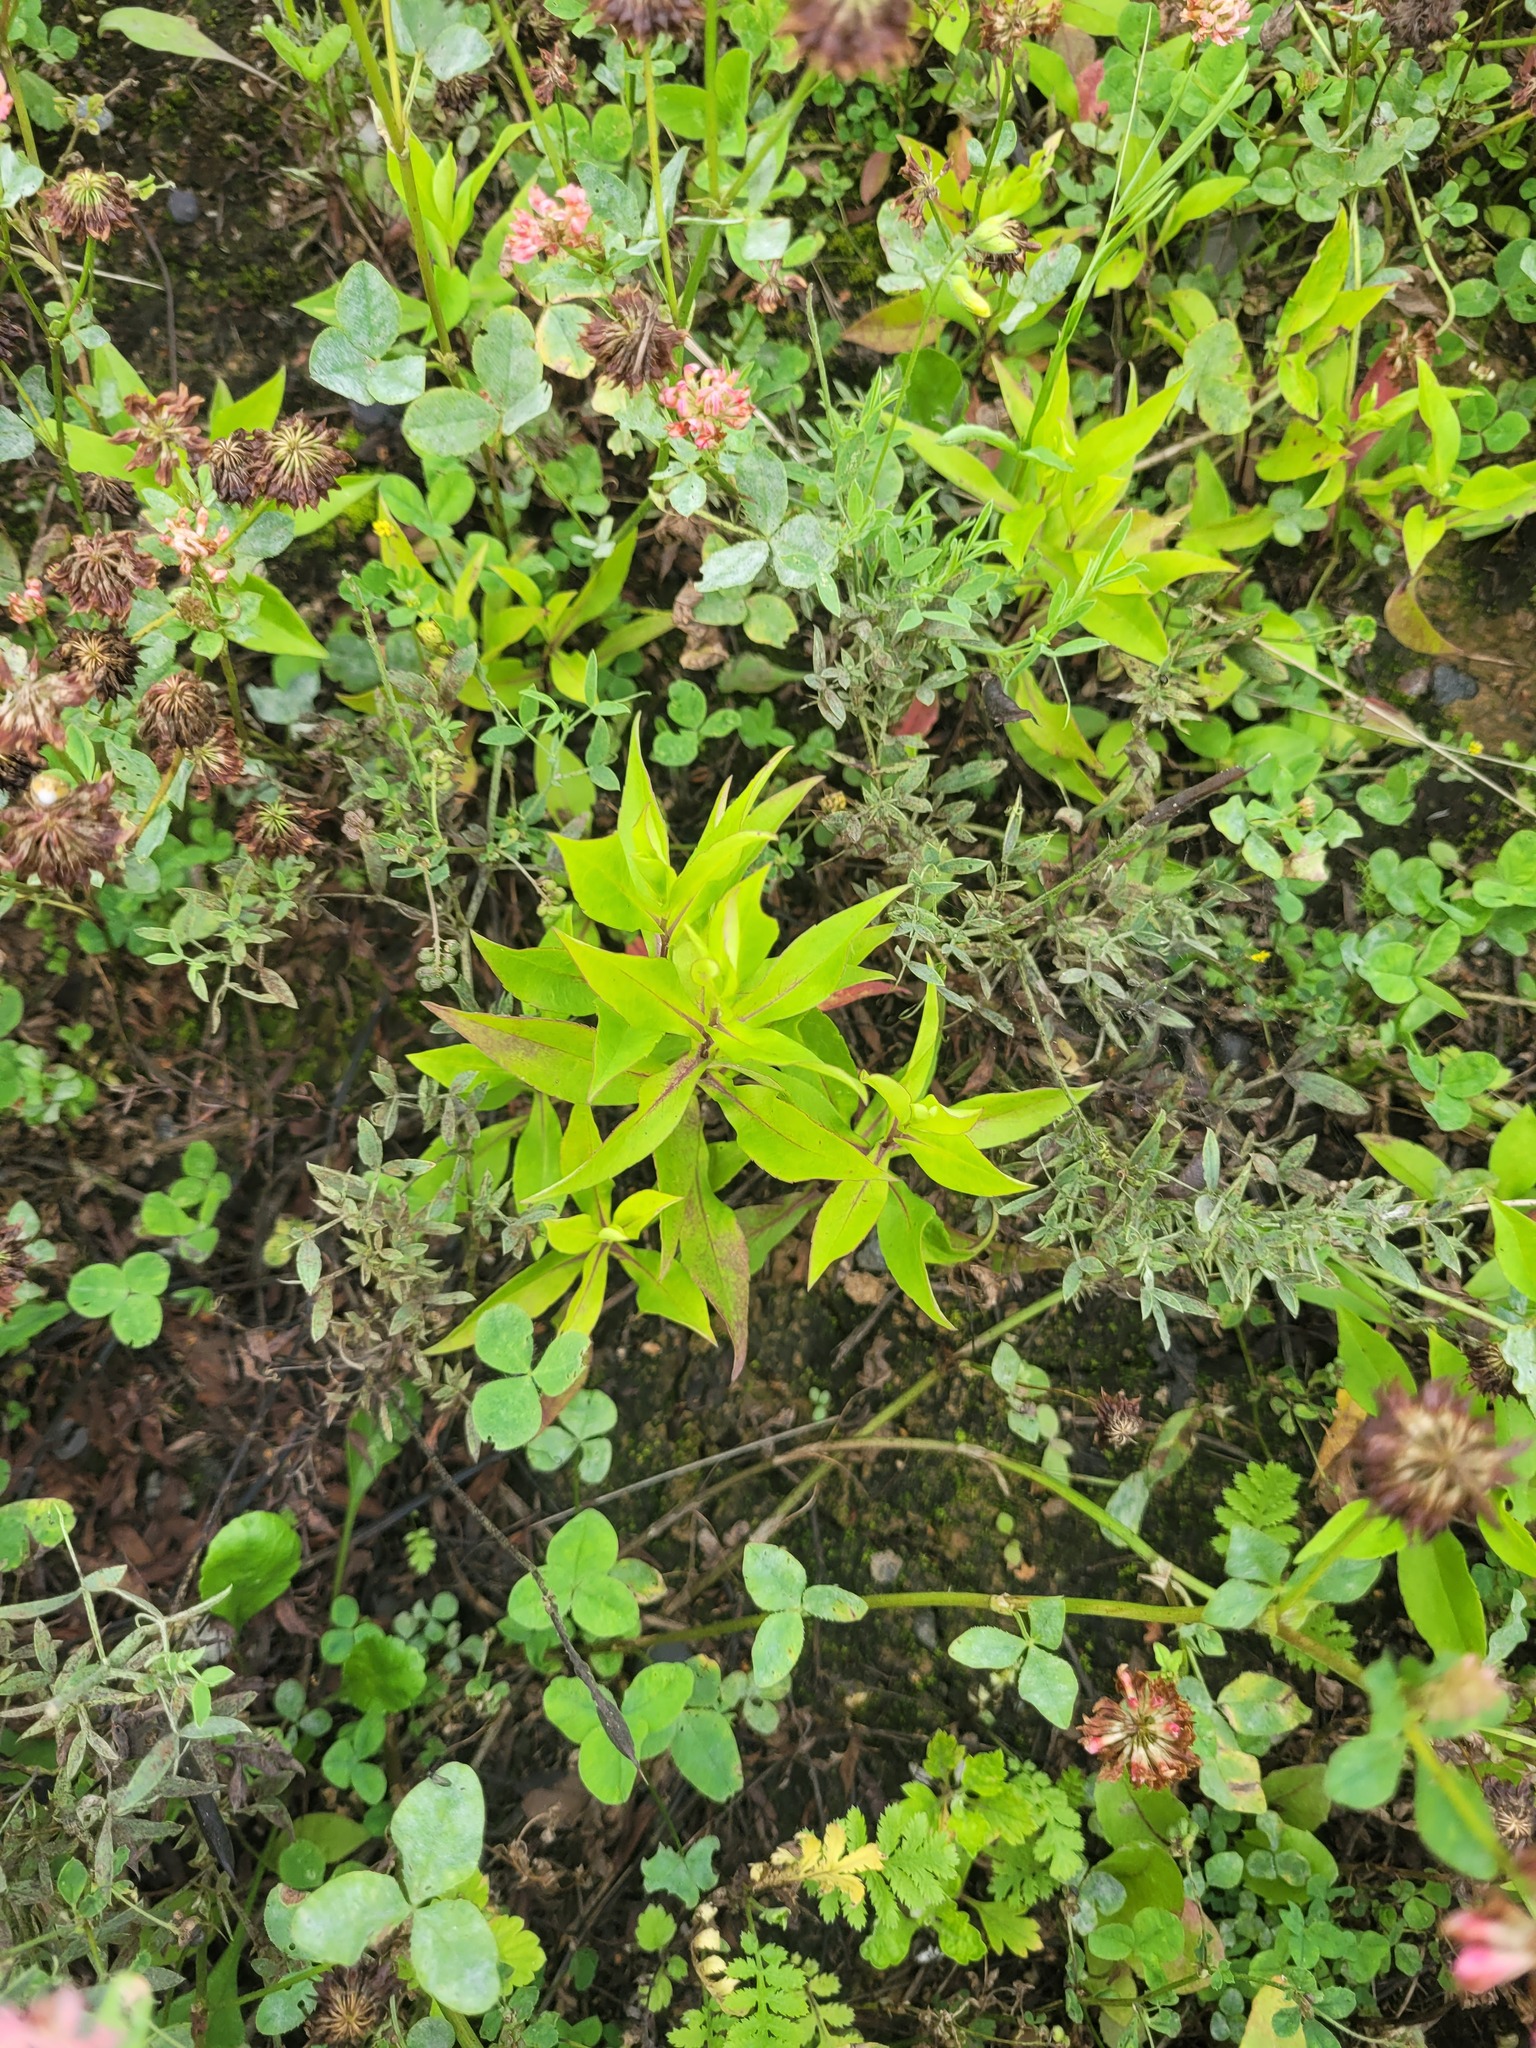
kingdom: Plantae
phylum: Tracheophyta
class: Magnoliopsida
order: Asterales
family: Asteraceae
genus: Symphyotrichum
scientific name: Symphyotrichum novi-belgii
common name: Michaelmas daisy
